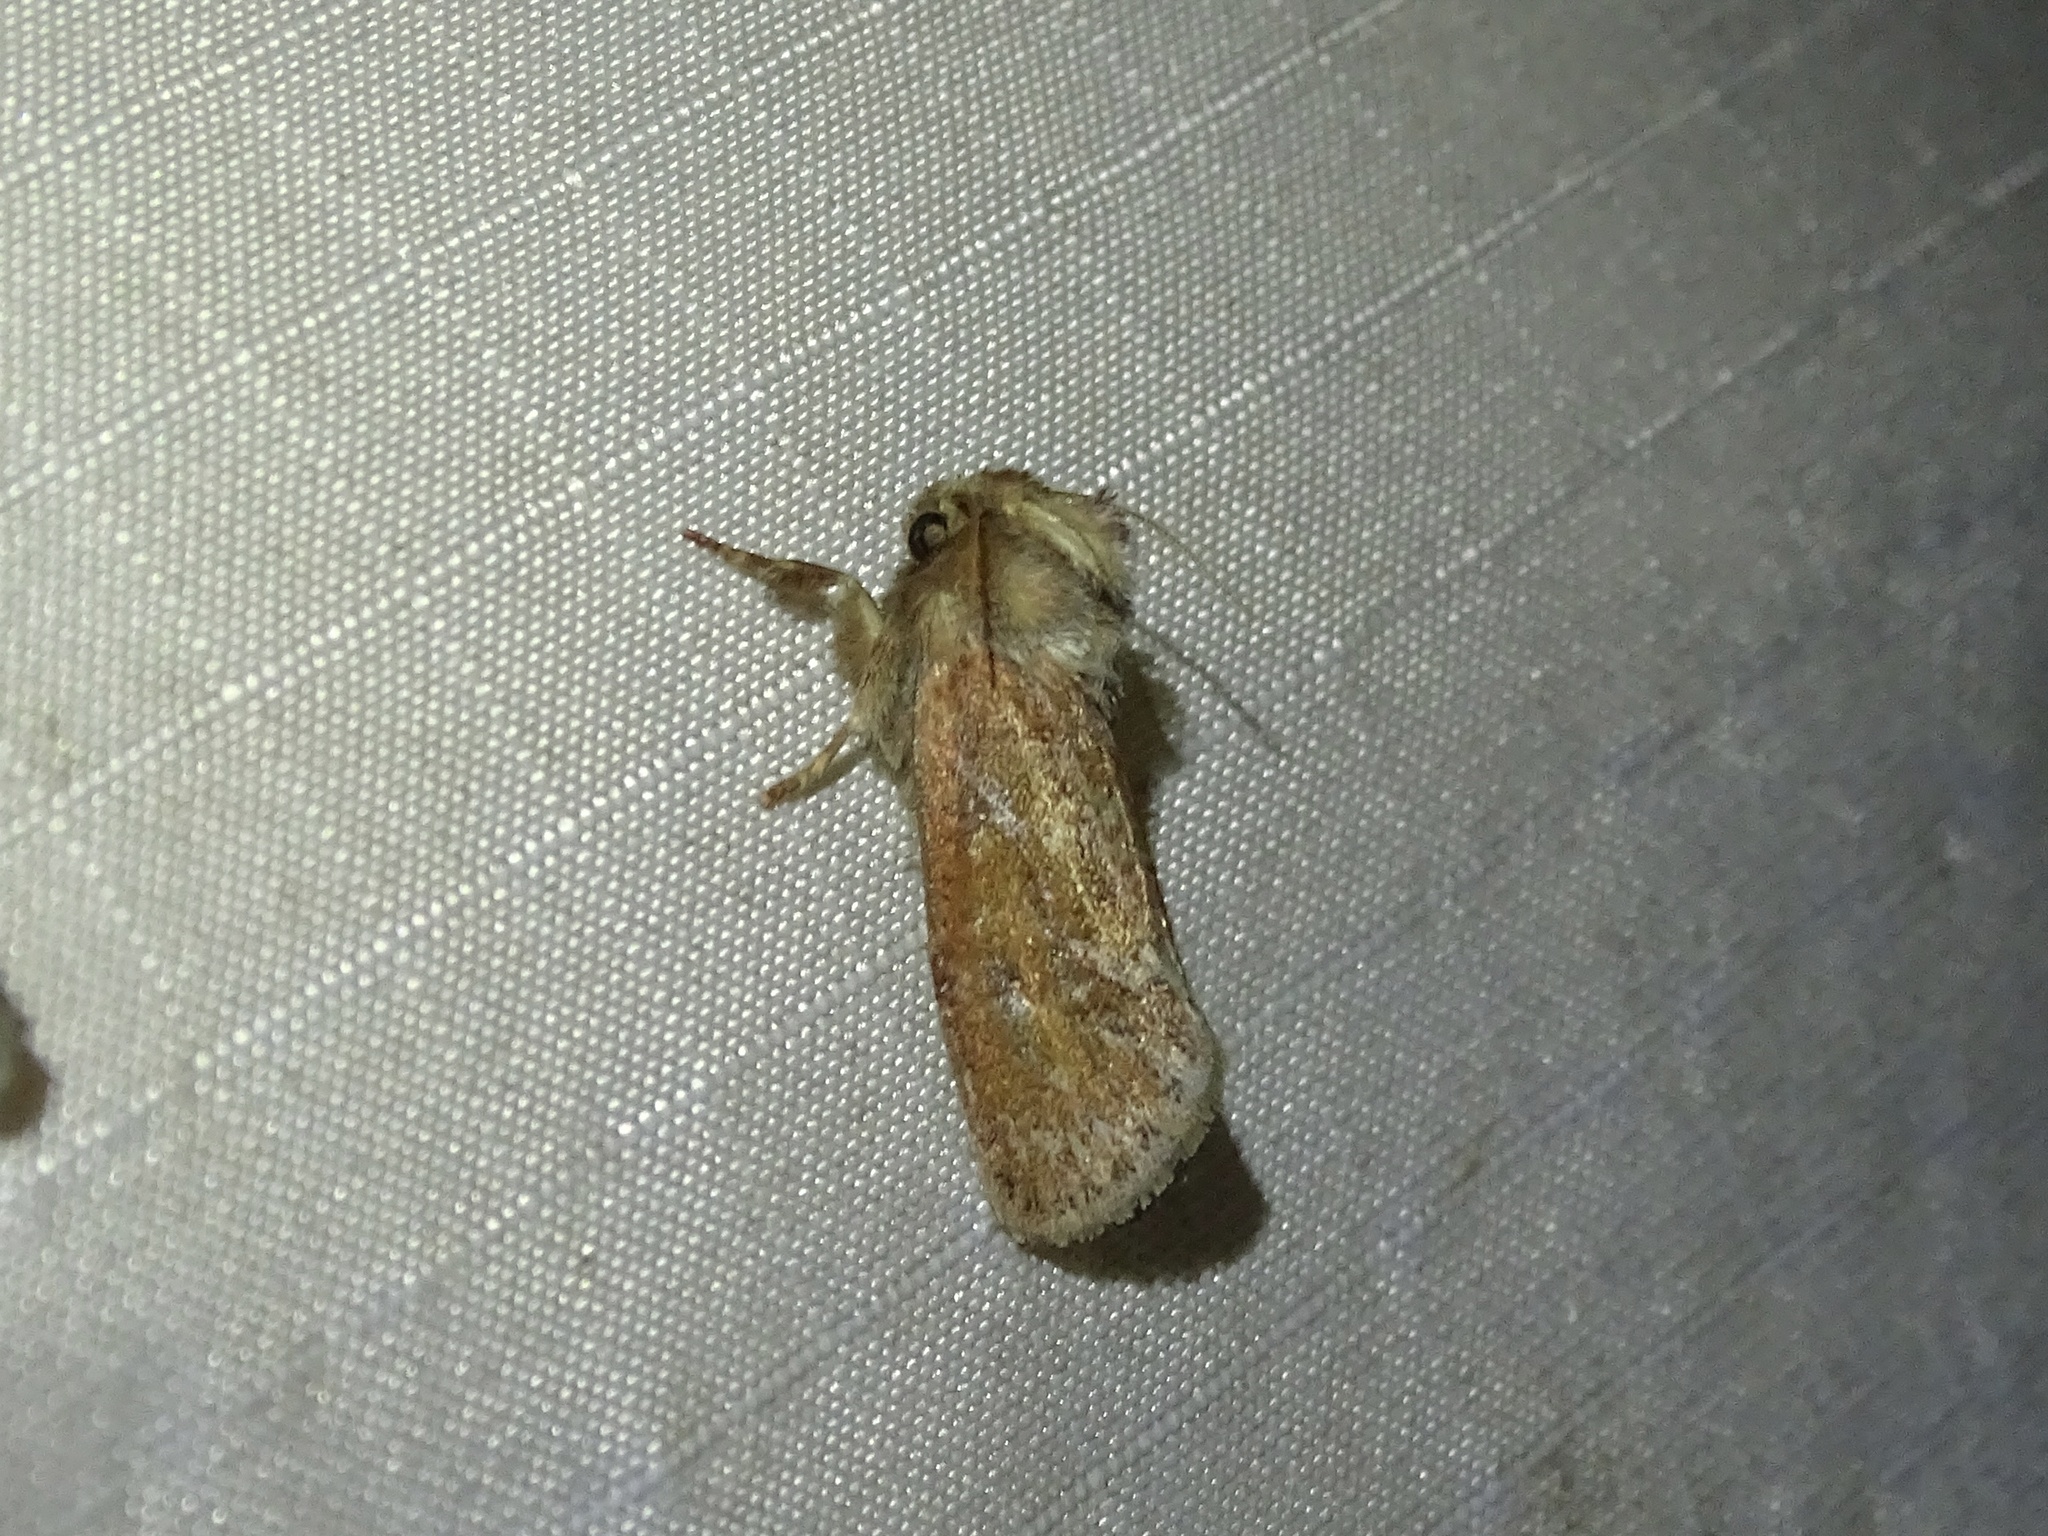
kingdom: Animalia
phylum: Arthropoda
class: Insecta
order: Lepidoptera
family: Tineidae
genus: Acrolophus
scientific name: Acrolophus plumifrontella
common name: Eastern grass tubeworm moth
